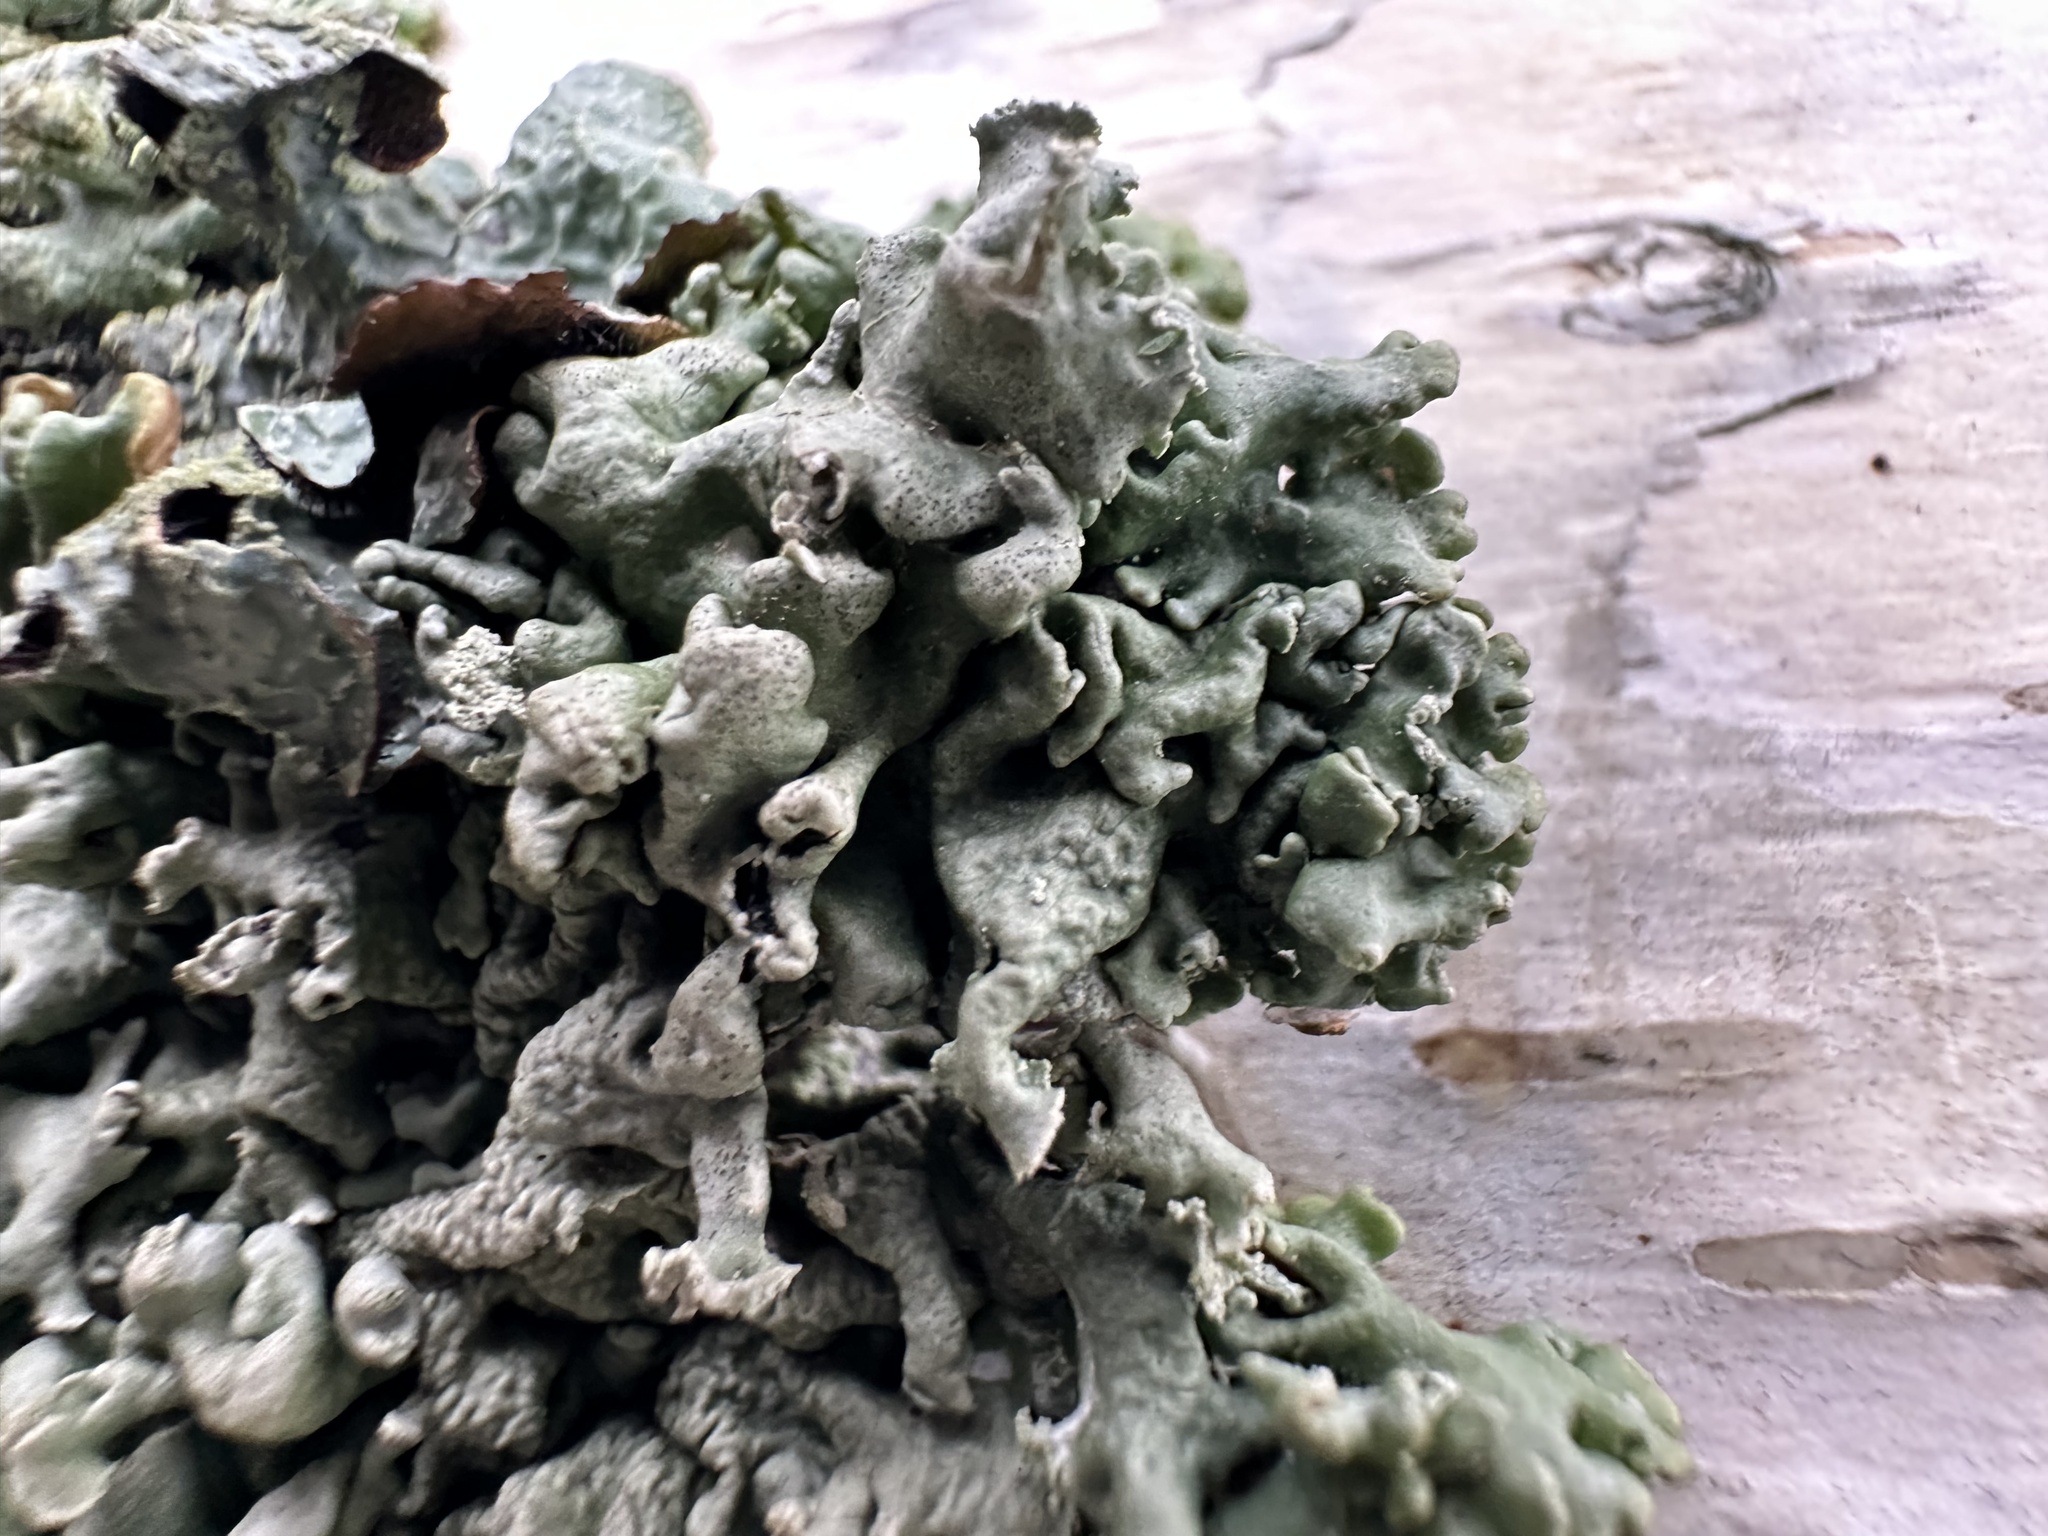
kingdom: Fungi
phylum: Ascomycota
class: Lecanoromycetes
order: Lecanorales
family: Parmeliaceae
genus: Hypogymnia
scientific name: Hypogymnia physodes
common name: Dark crottle
